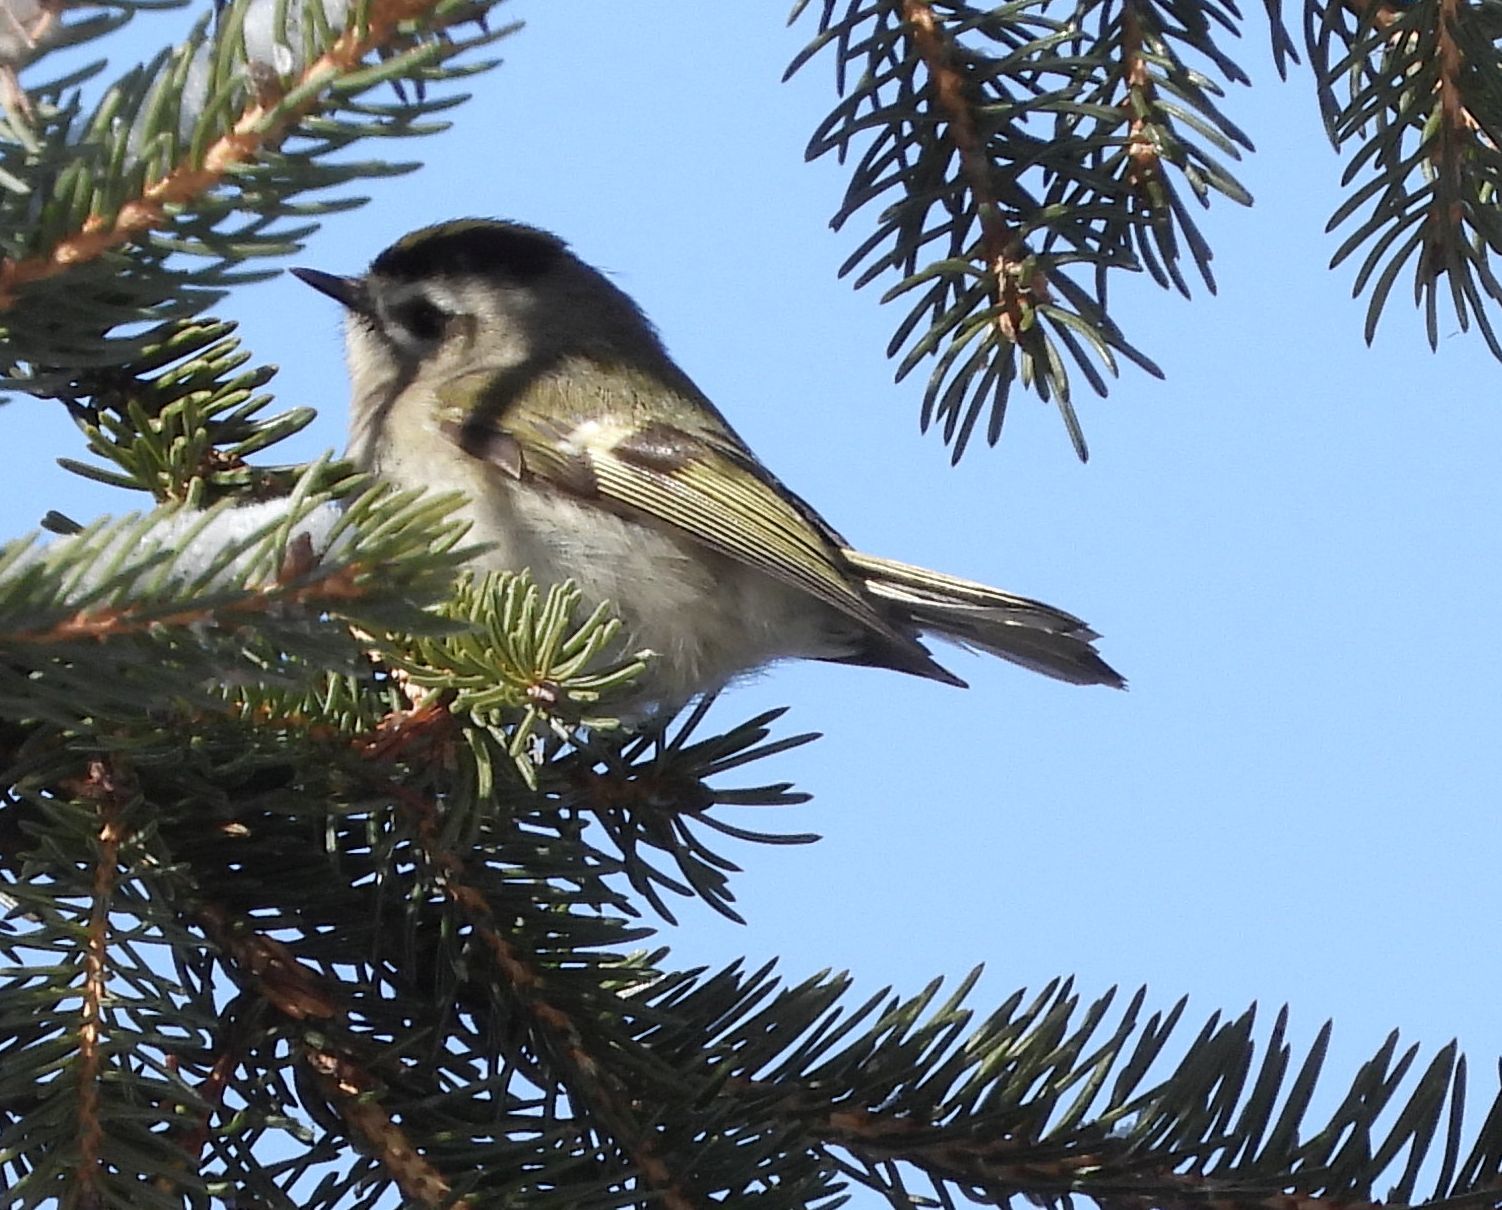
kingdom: Animalia
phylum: Chordata
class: Aves
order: Passeriformes
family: Regulidae
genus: Regulus
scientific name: Regulus satrapa
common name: Golden-crowned kinglet
